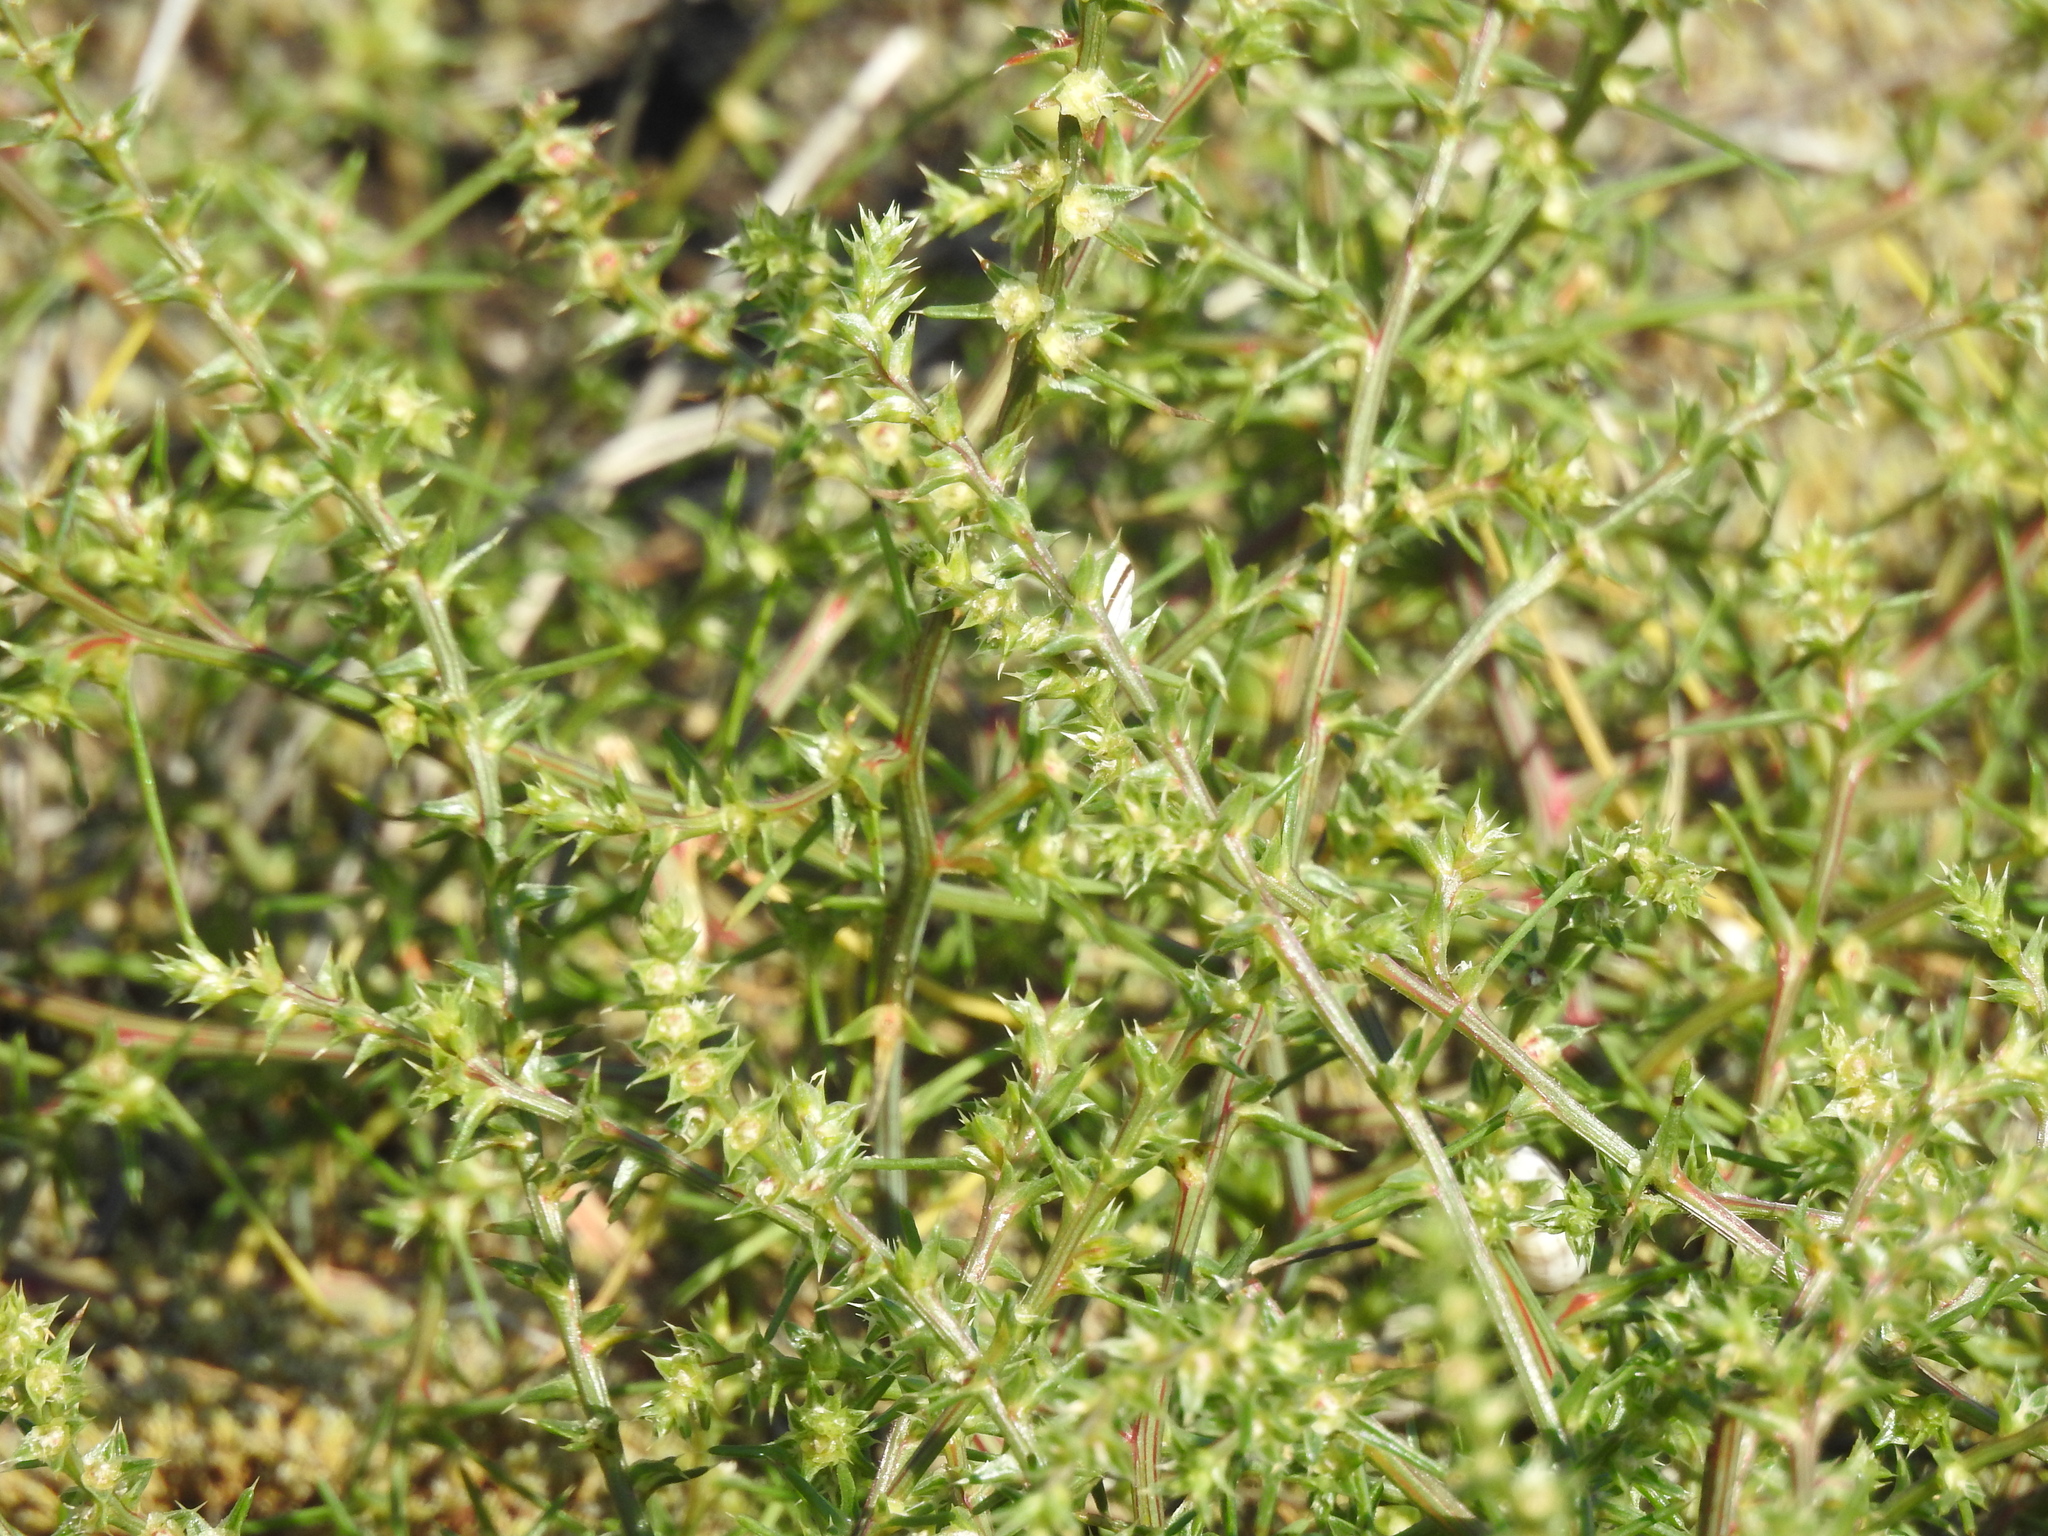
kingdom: Plantae
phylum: Tracheophyta
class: Magnoliopsida
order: Caryophyllales
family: Amaranthaceae
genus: Salsola
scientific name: Salsola tragus
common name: Prickly russian thistle
